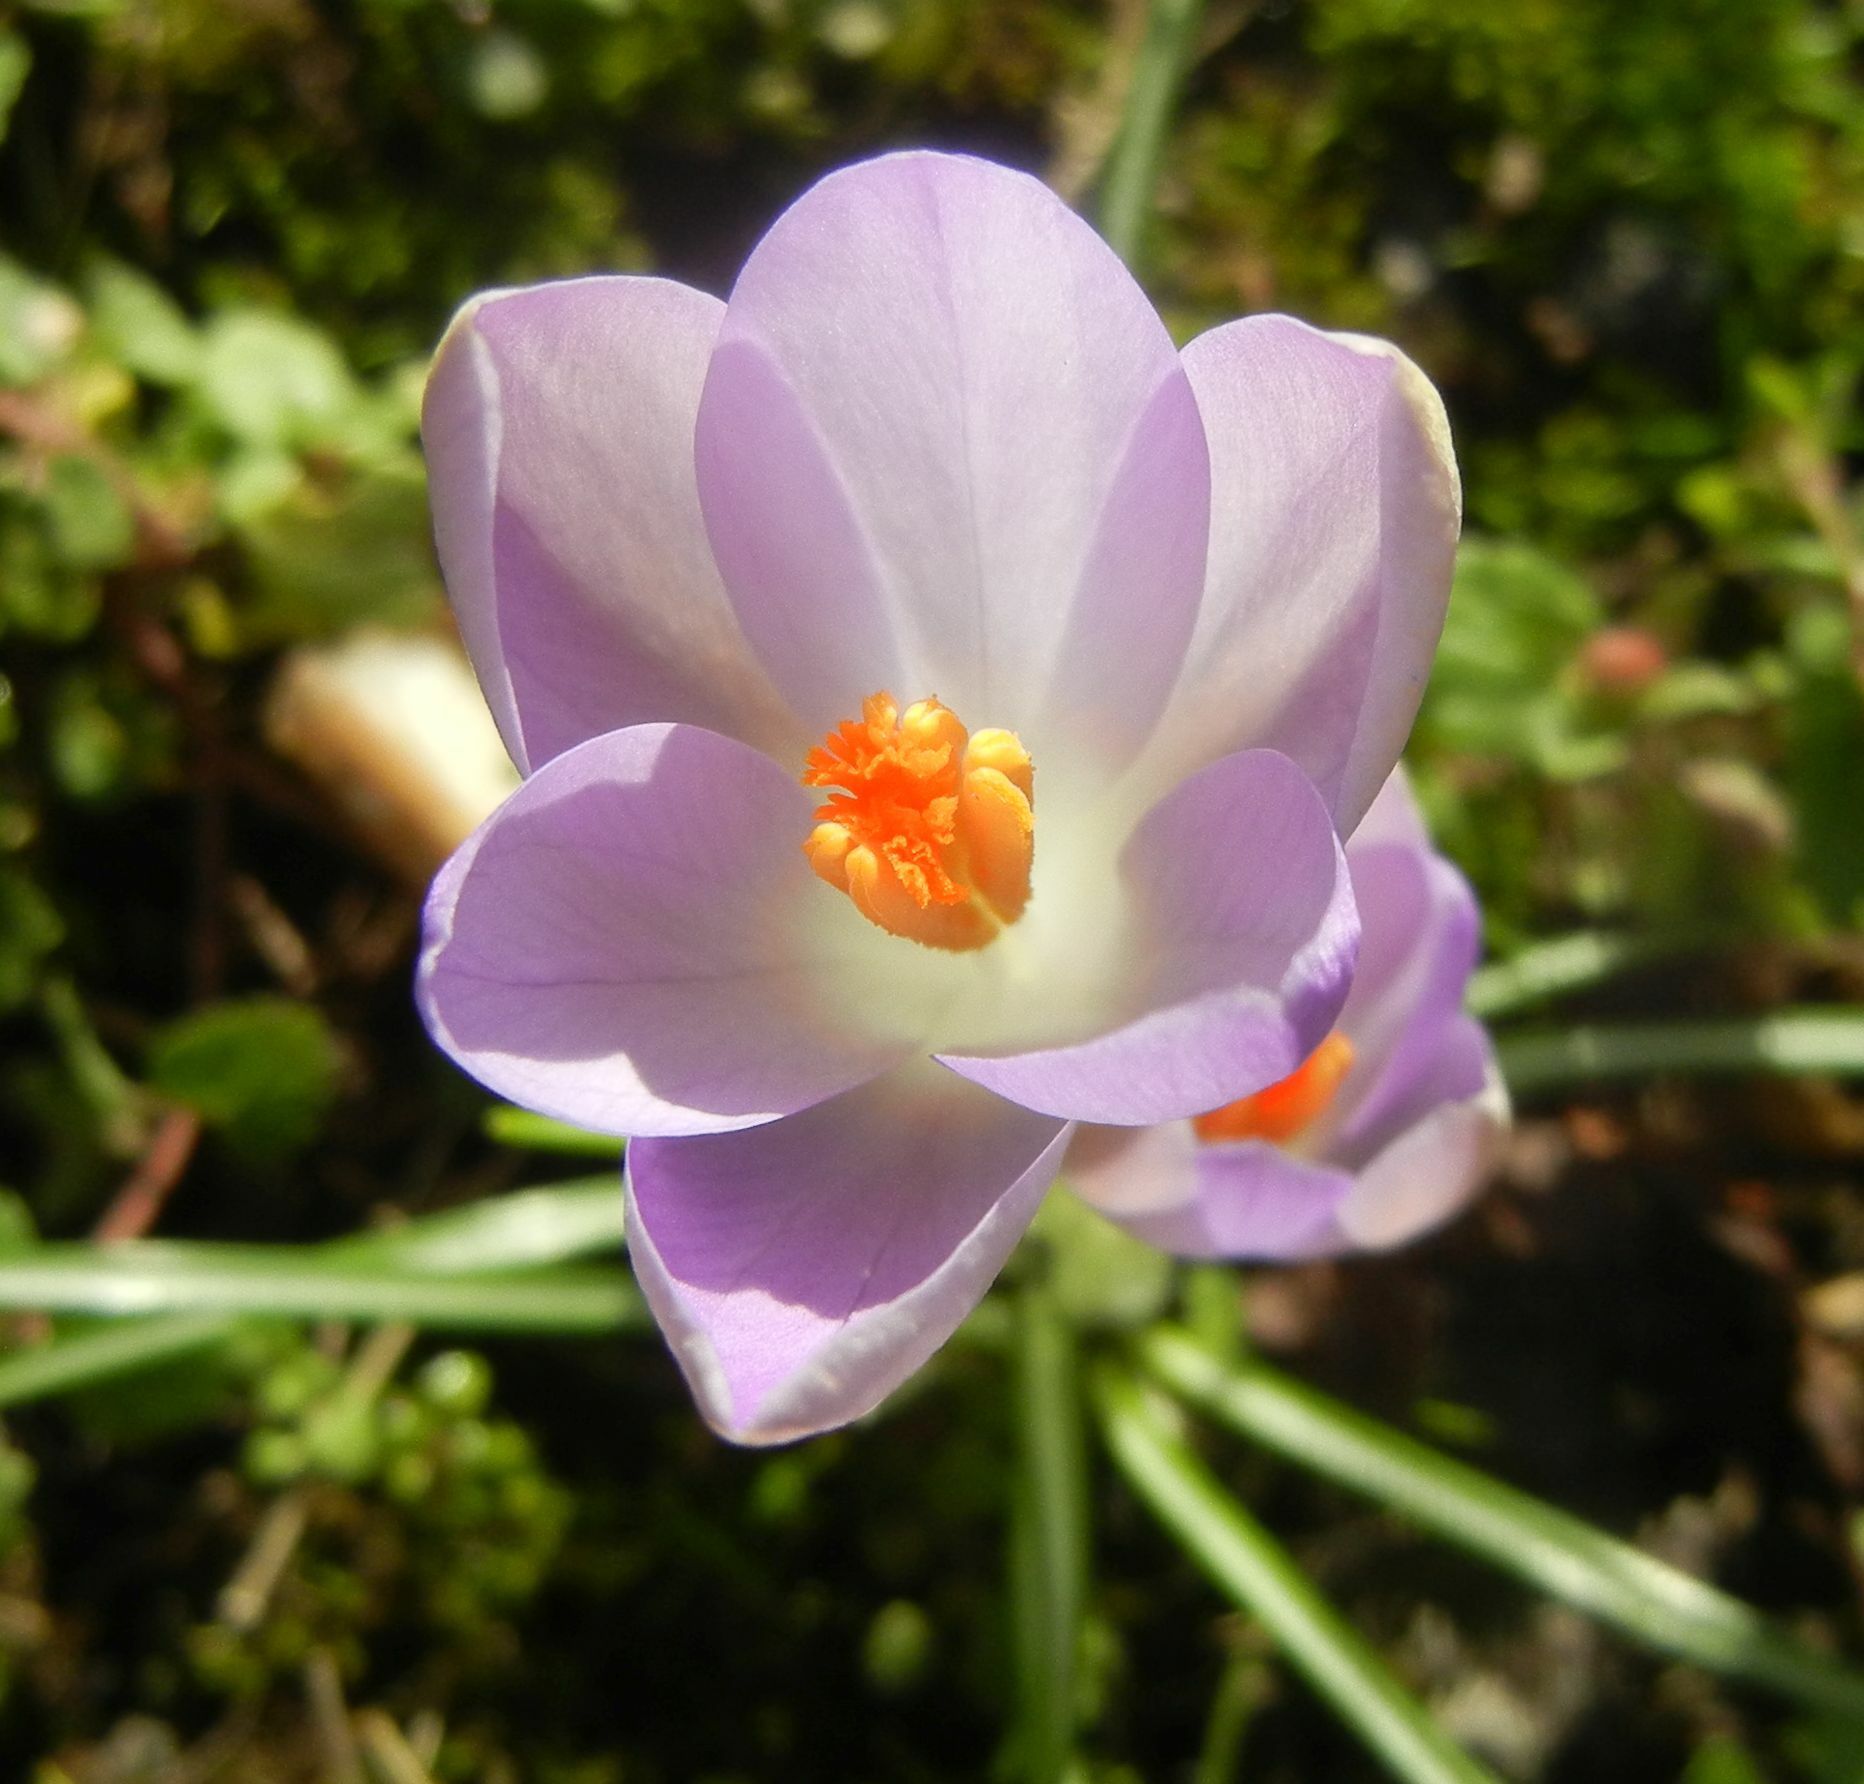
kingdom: Plantae
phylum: Tracheophyta
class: Liliopsida
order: Asparagales
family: Iridaceae
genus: Crocus
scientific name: Crocus tommasinianus
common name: Early crocus
